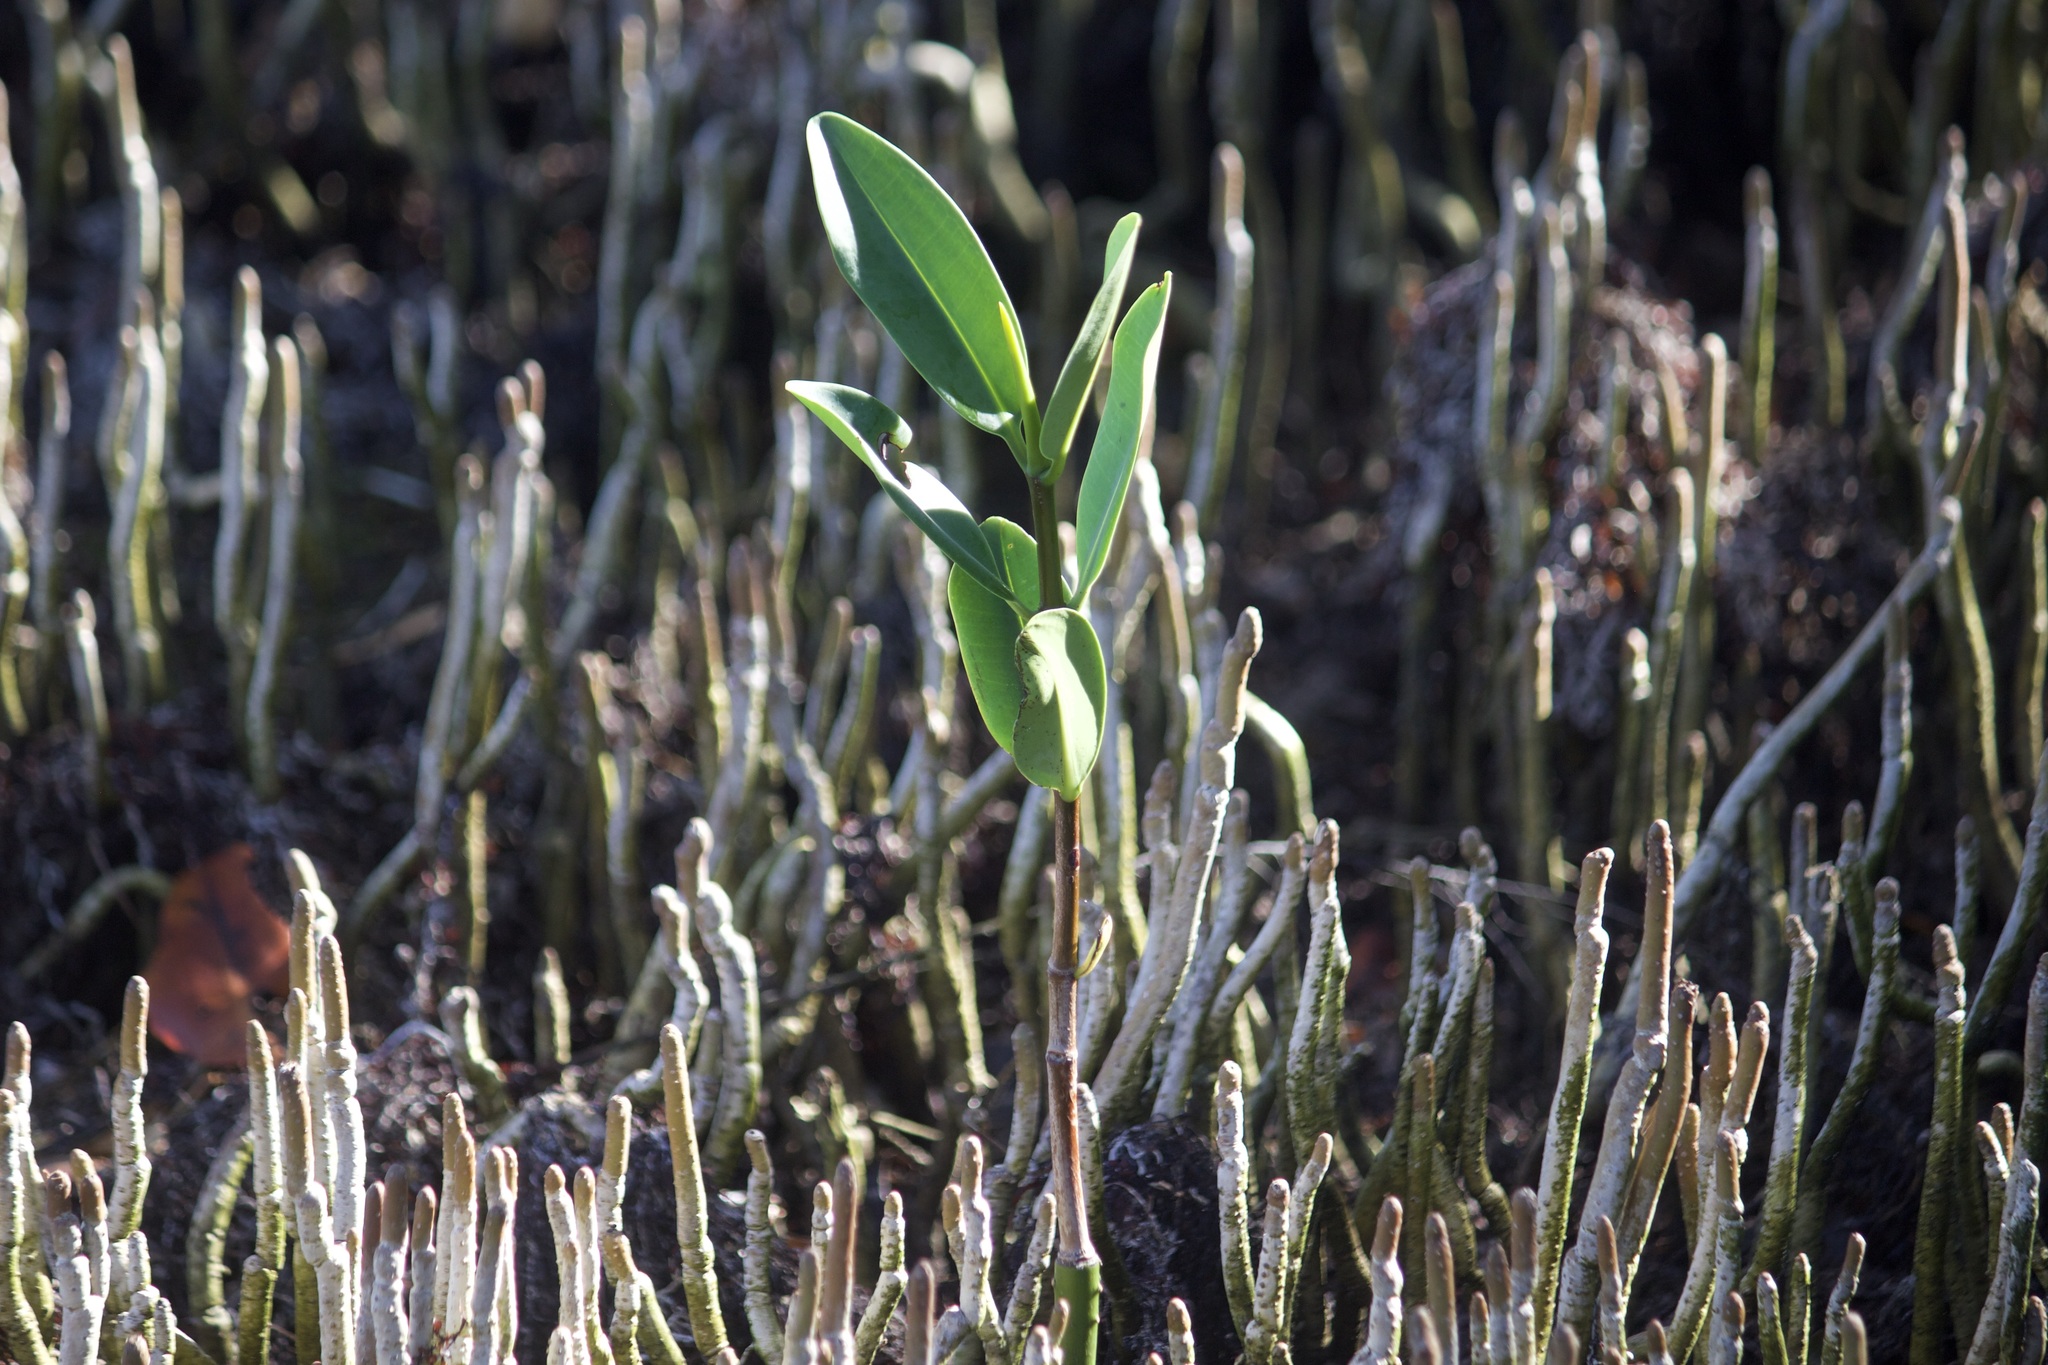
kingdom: Plantae
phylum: Tracheophyta
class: Magnoliopsida
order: Lamiales
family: Acanthaceae
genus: Avicennia
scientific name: Avicennia germinans
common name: Black mangrove
